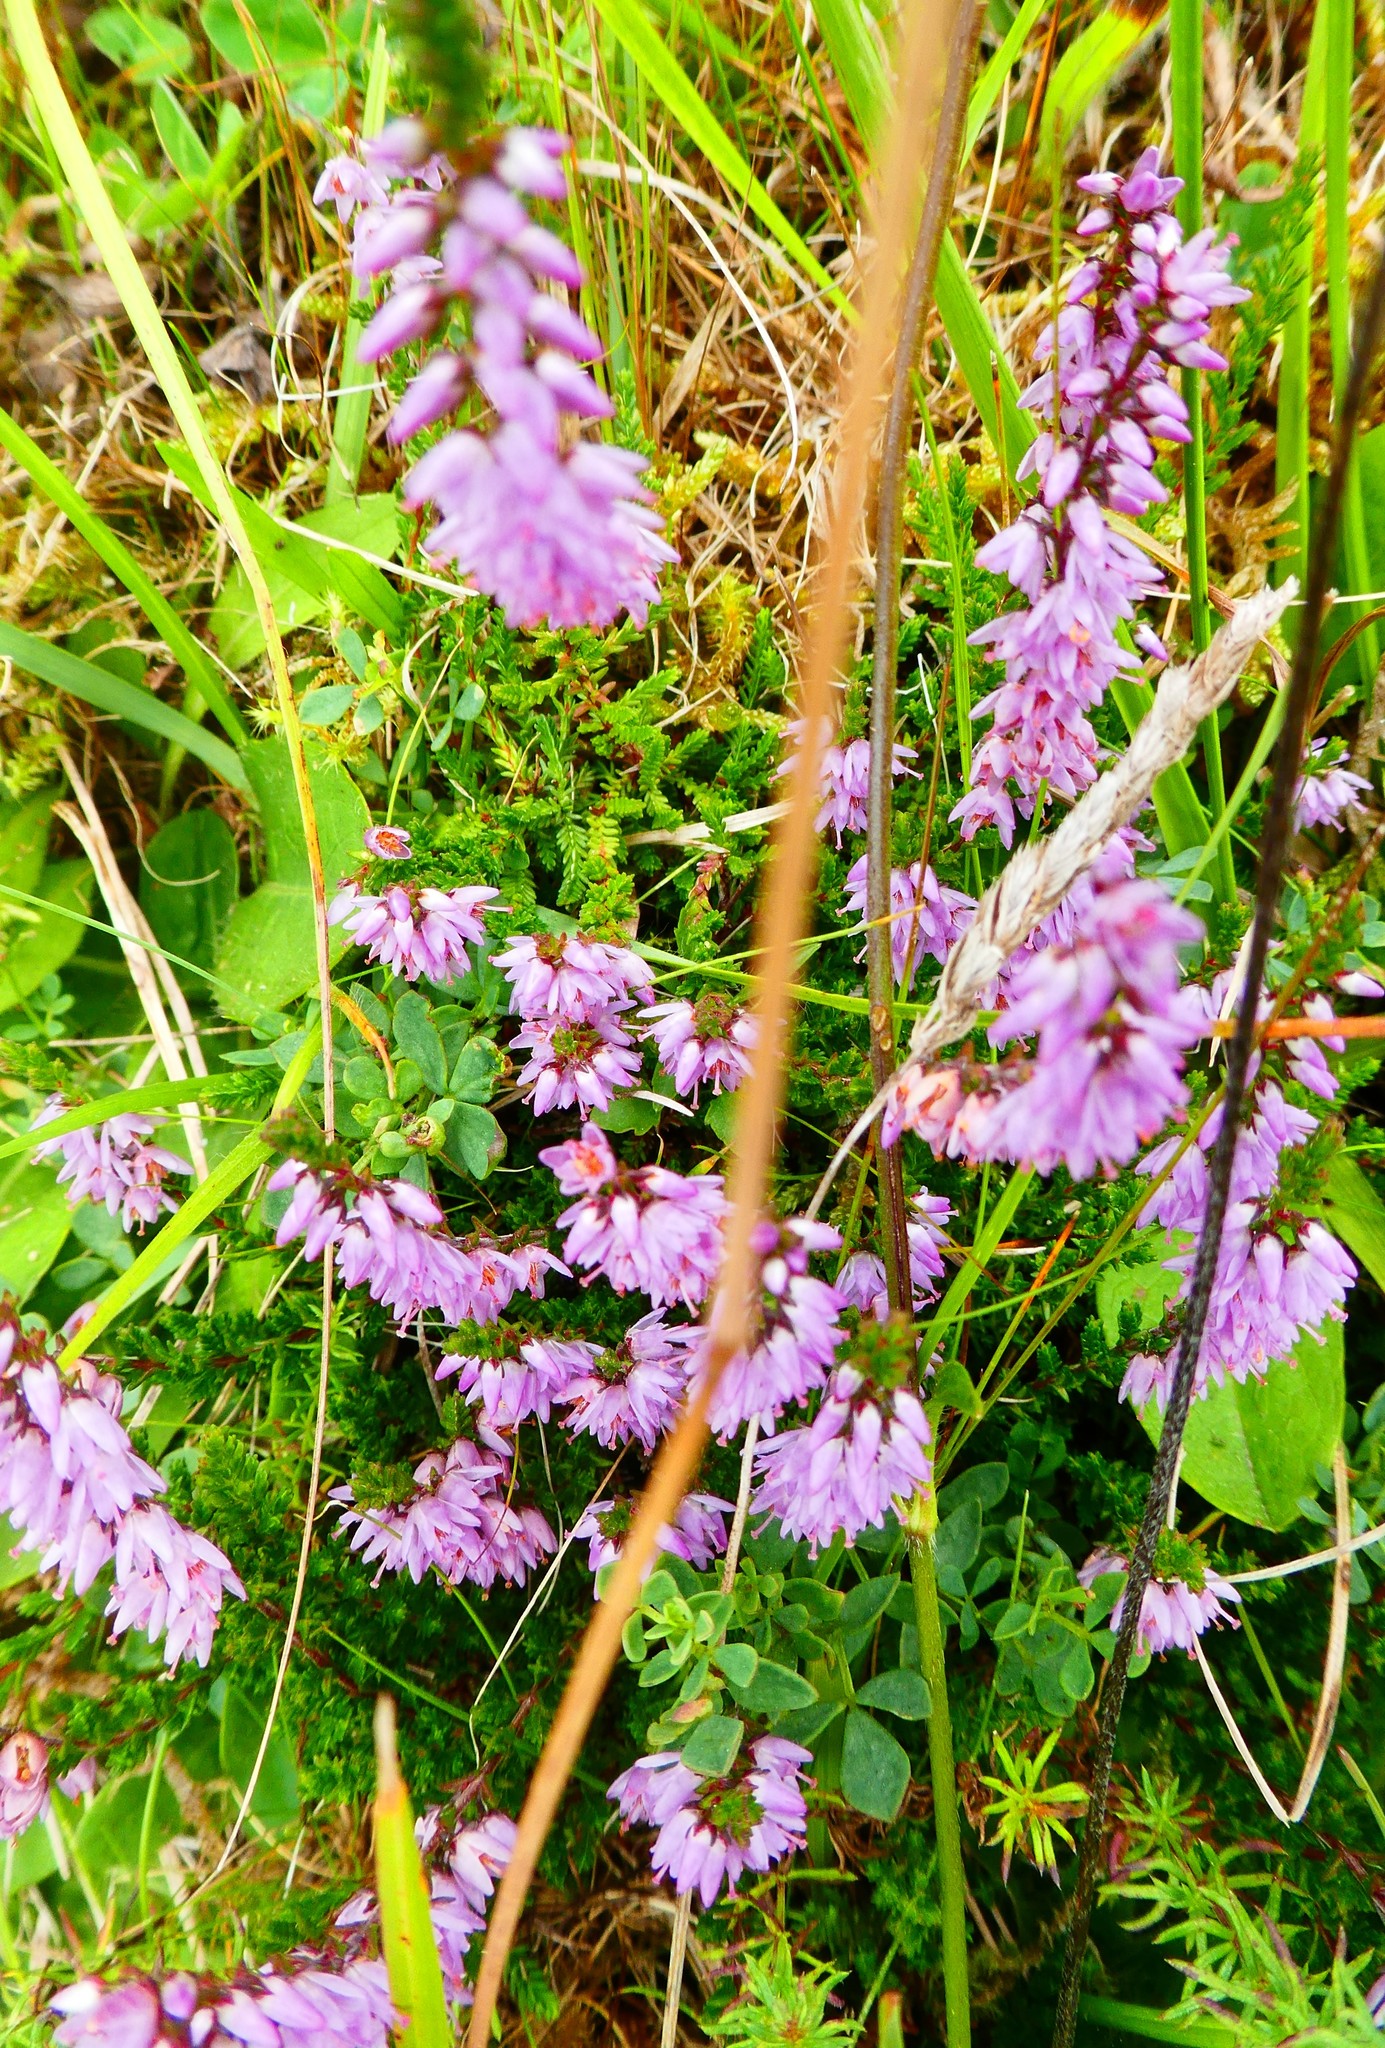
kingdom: Plantae
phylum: Tracheophyta
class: Magnoliopsida
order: Ericales
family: Ericaceae
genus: Calluna
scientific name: Calluna vulgaris
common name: Heather
